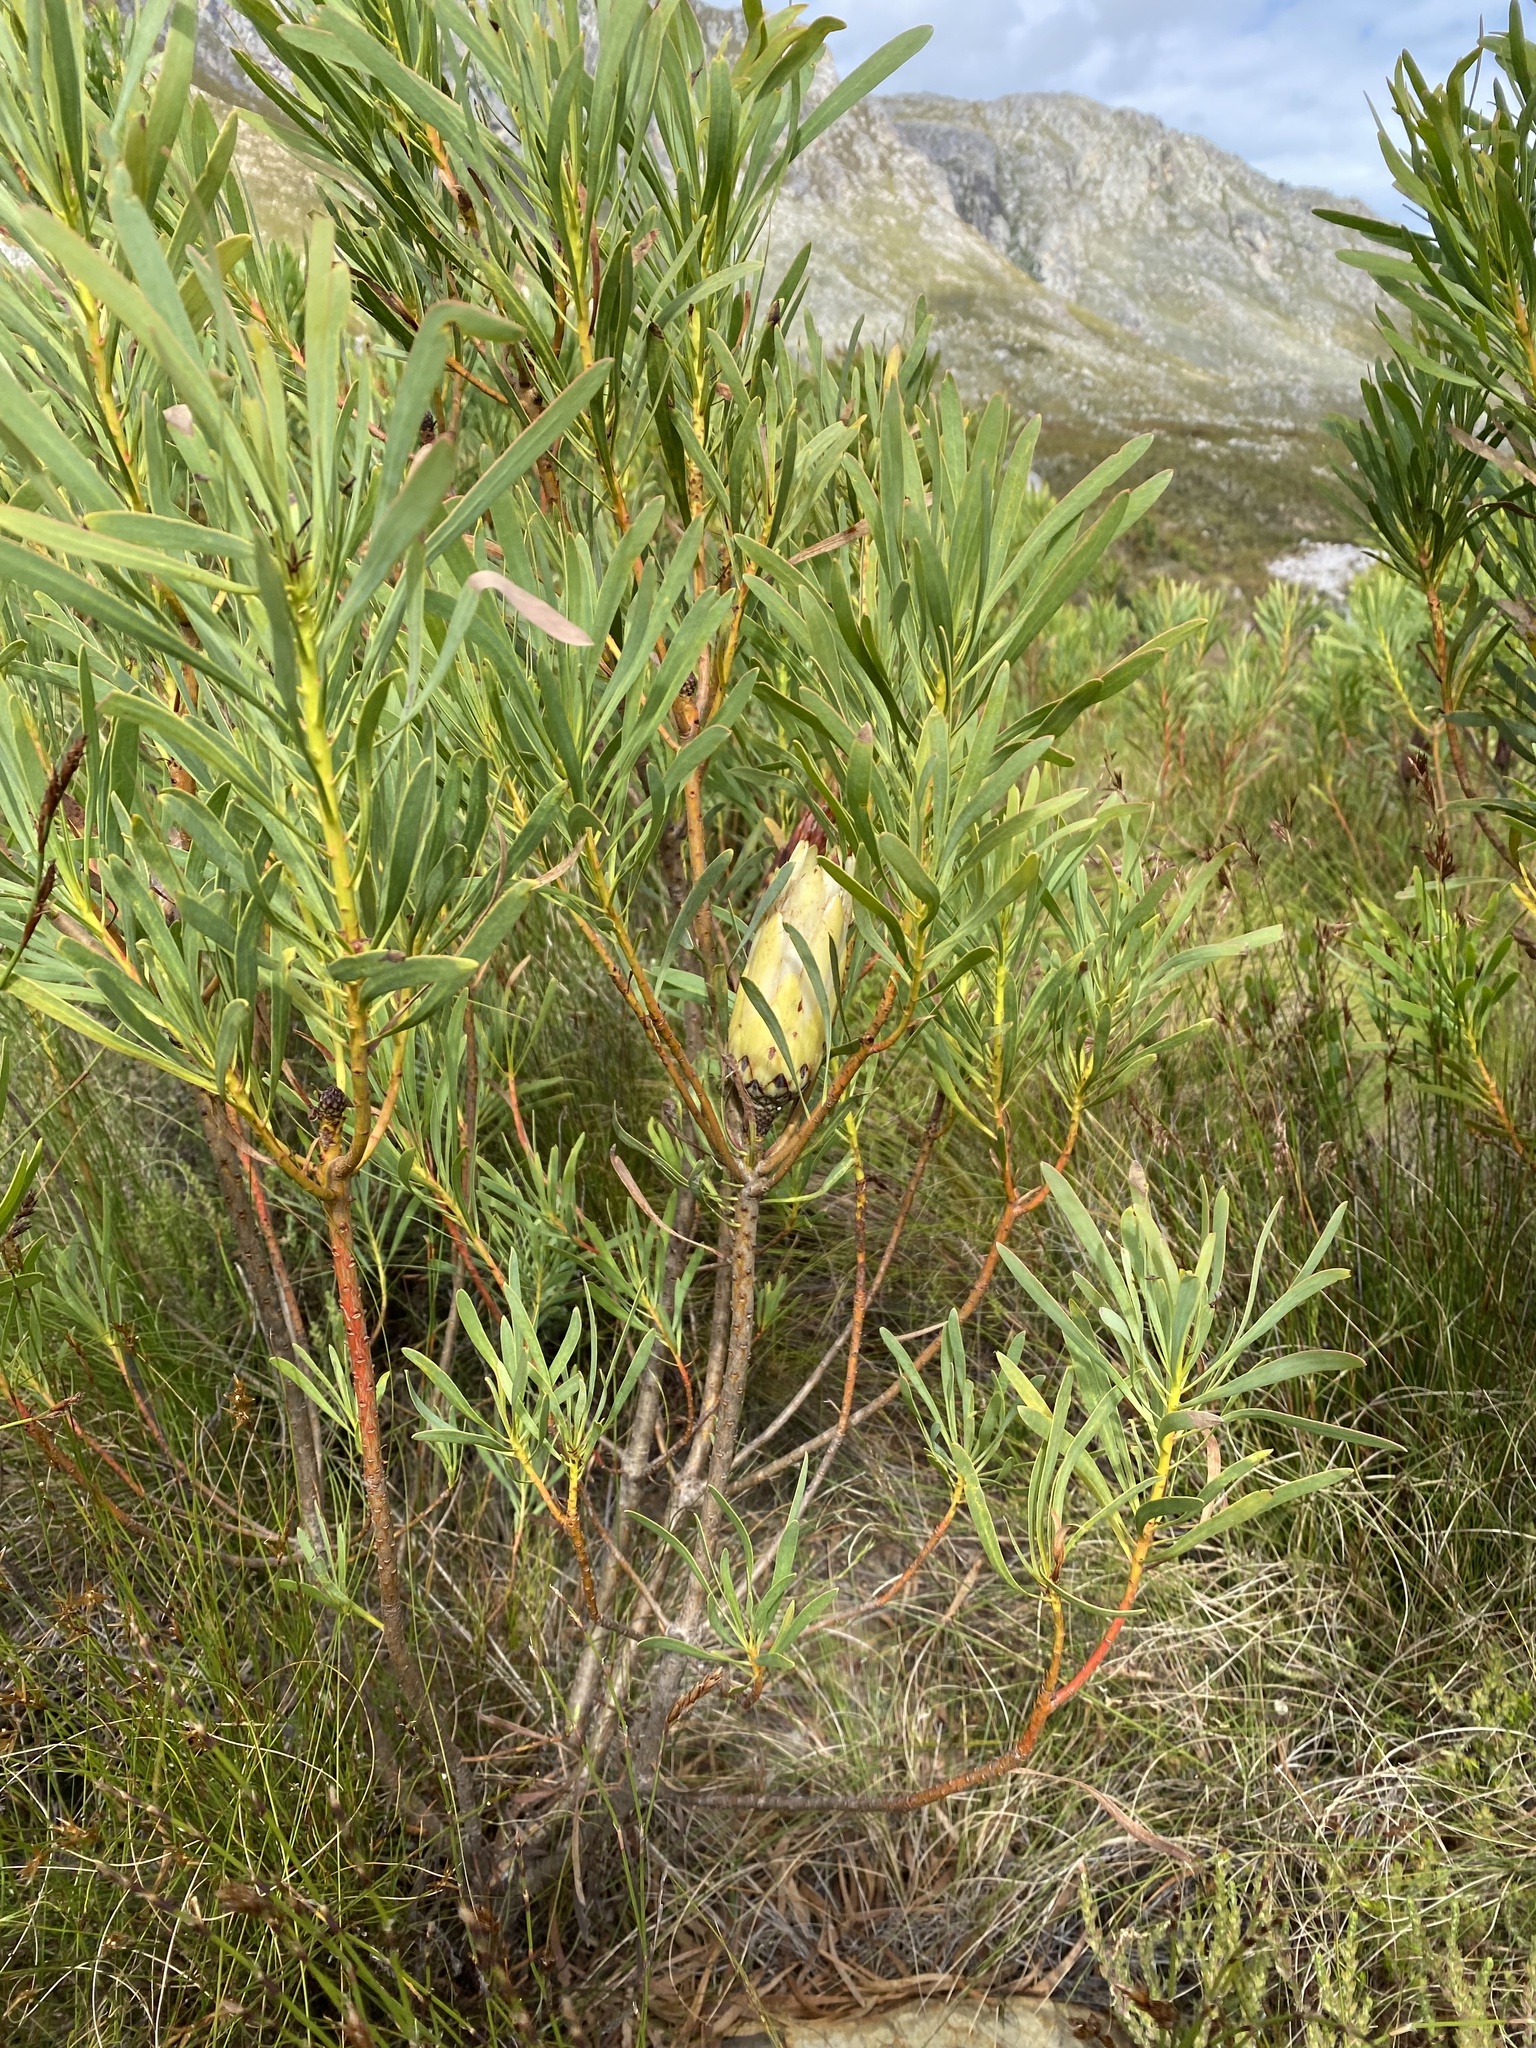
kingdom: Plantae
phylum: Tracheophyta
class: Magnoliopsida
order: Proteales
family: Proteaceae
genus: Protea
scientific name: Protea repens
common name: Sugarbush
